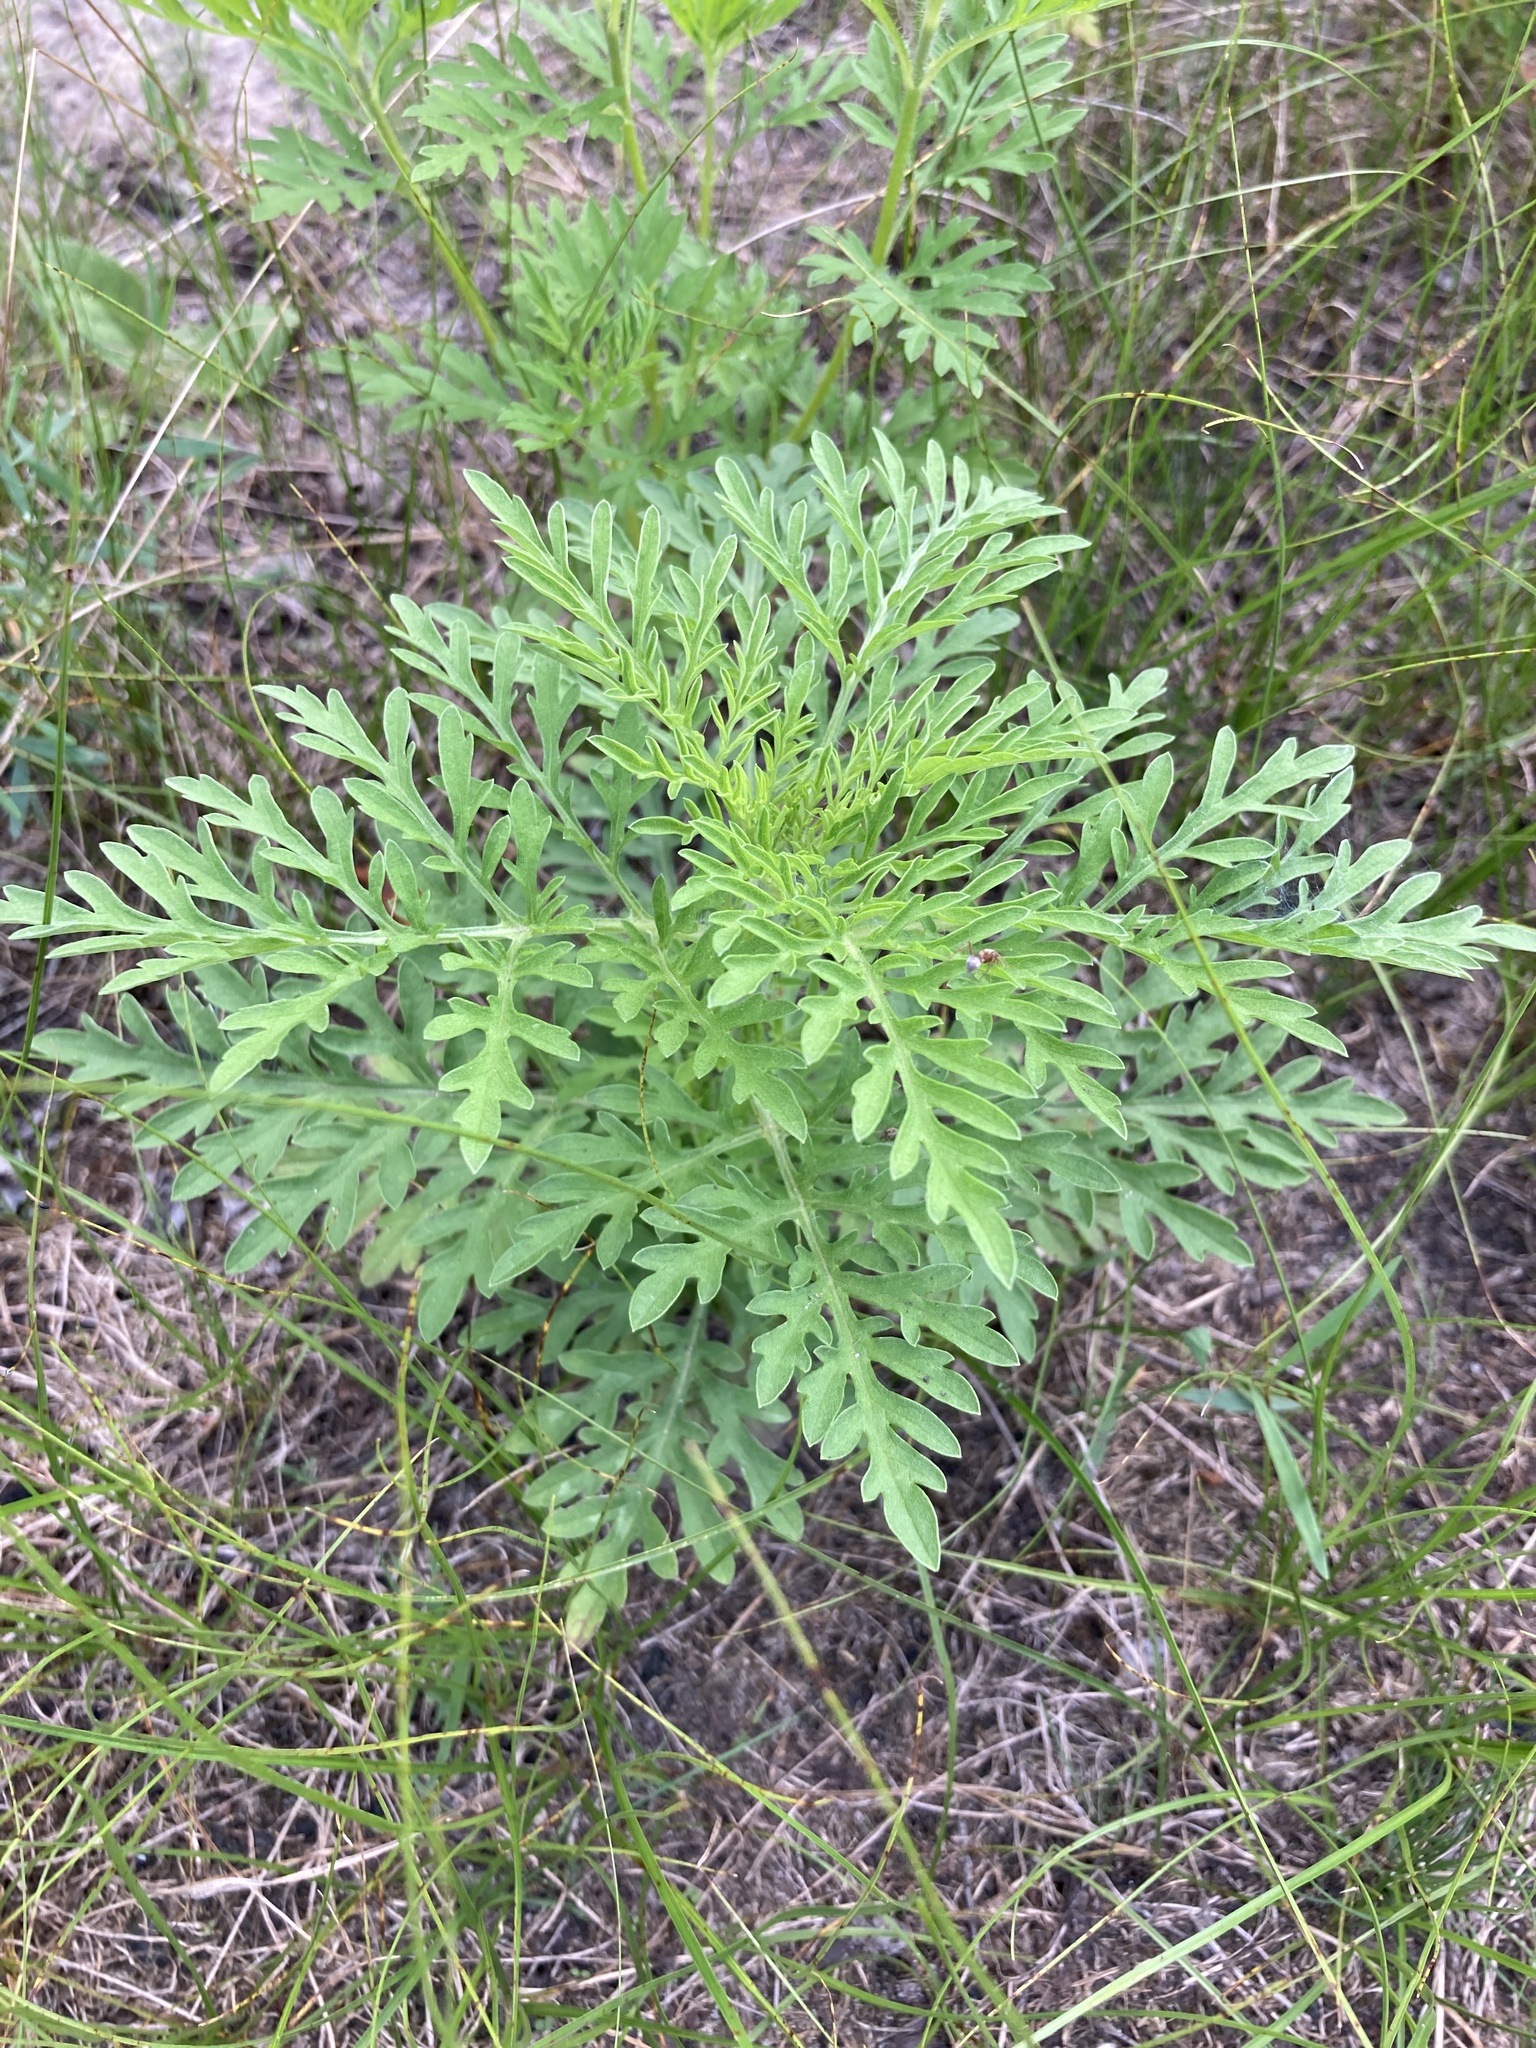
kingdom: Plantae
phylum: Tracheophyta
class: Magnoliopsida
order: Asterales
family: Asteraceae
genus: Ambrosia
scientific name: Ambrosia artemisiifolia
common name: Annual ragweed
